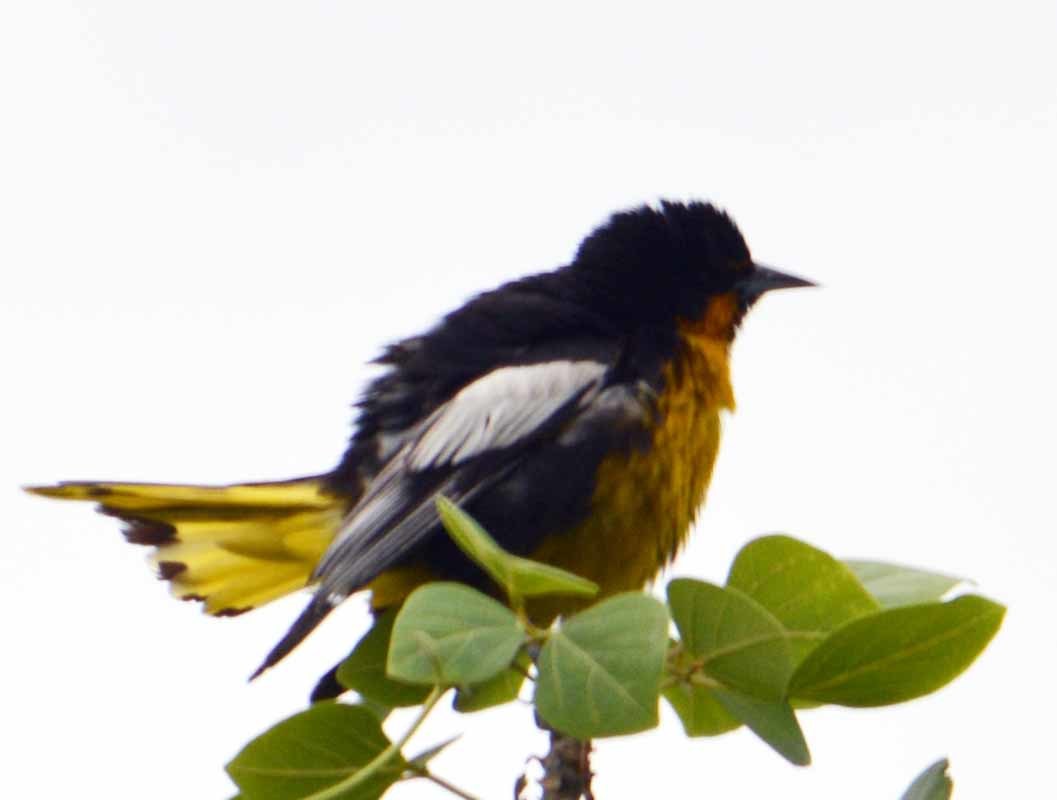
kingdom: Animalia
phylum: Chordata
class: Aves
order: Passeriformes
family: Icteridae
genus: Icterus
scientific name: Icterus abeillei
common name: Black-backed oriole
